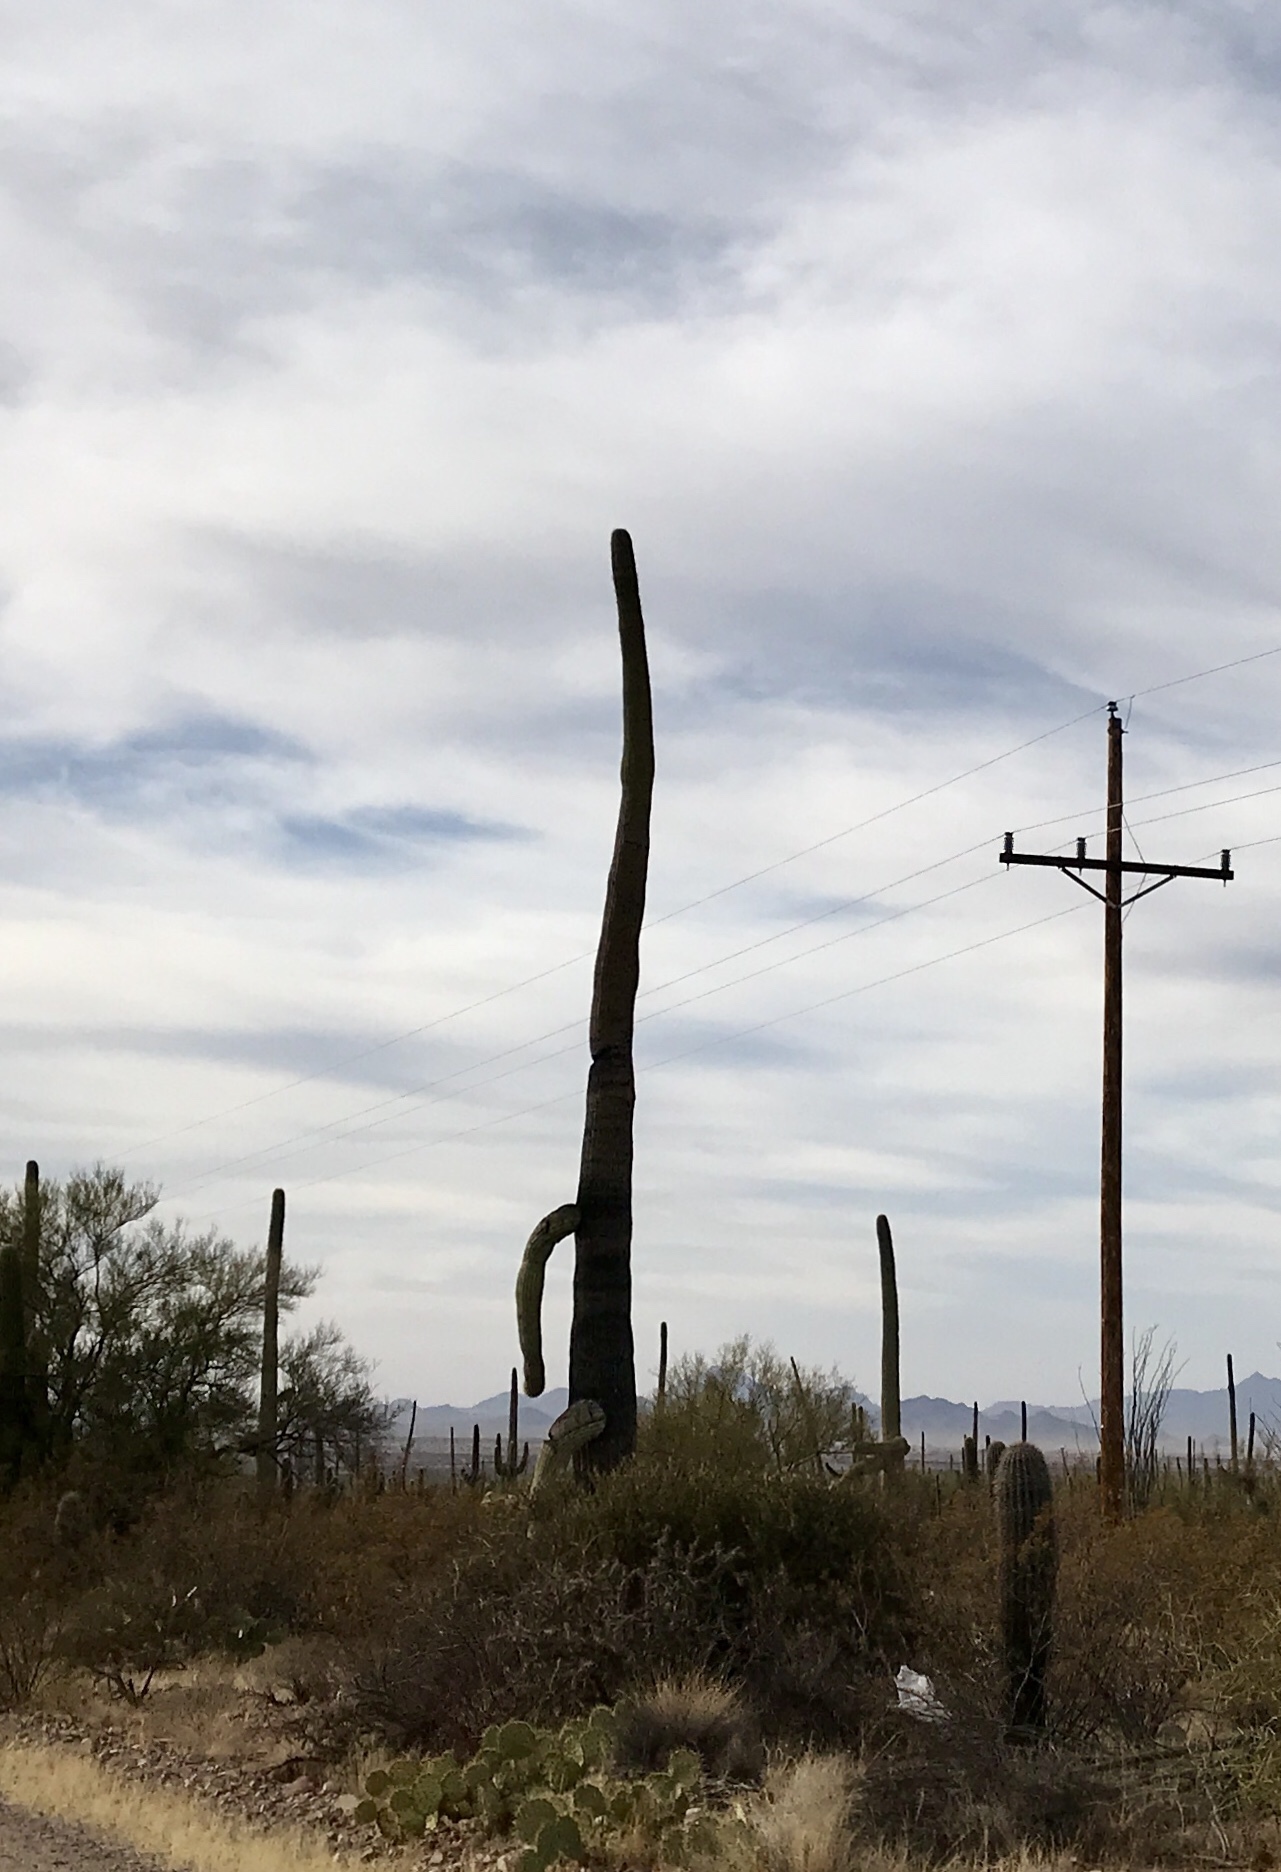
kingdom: Plantae
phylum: Tracheophyta
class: Magnoliopsida
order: Caryophyllales
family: Cactaceae
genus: Carnegiea
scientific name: Carnegiea gigantea
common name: Saguaro
